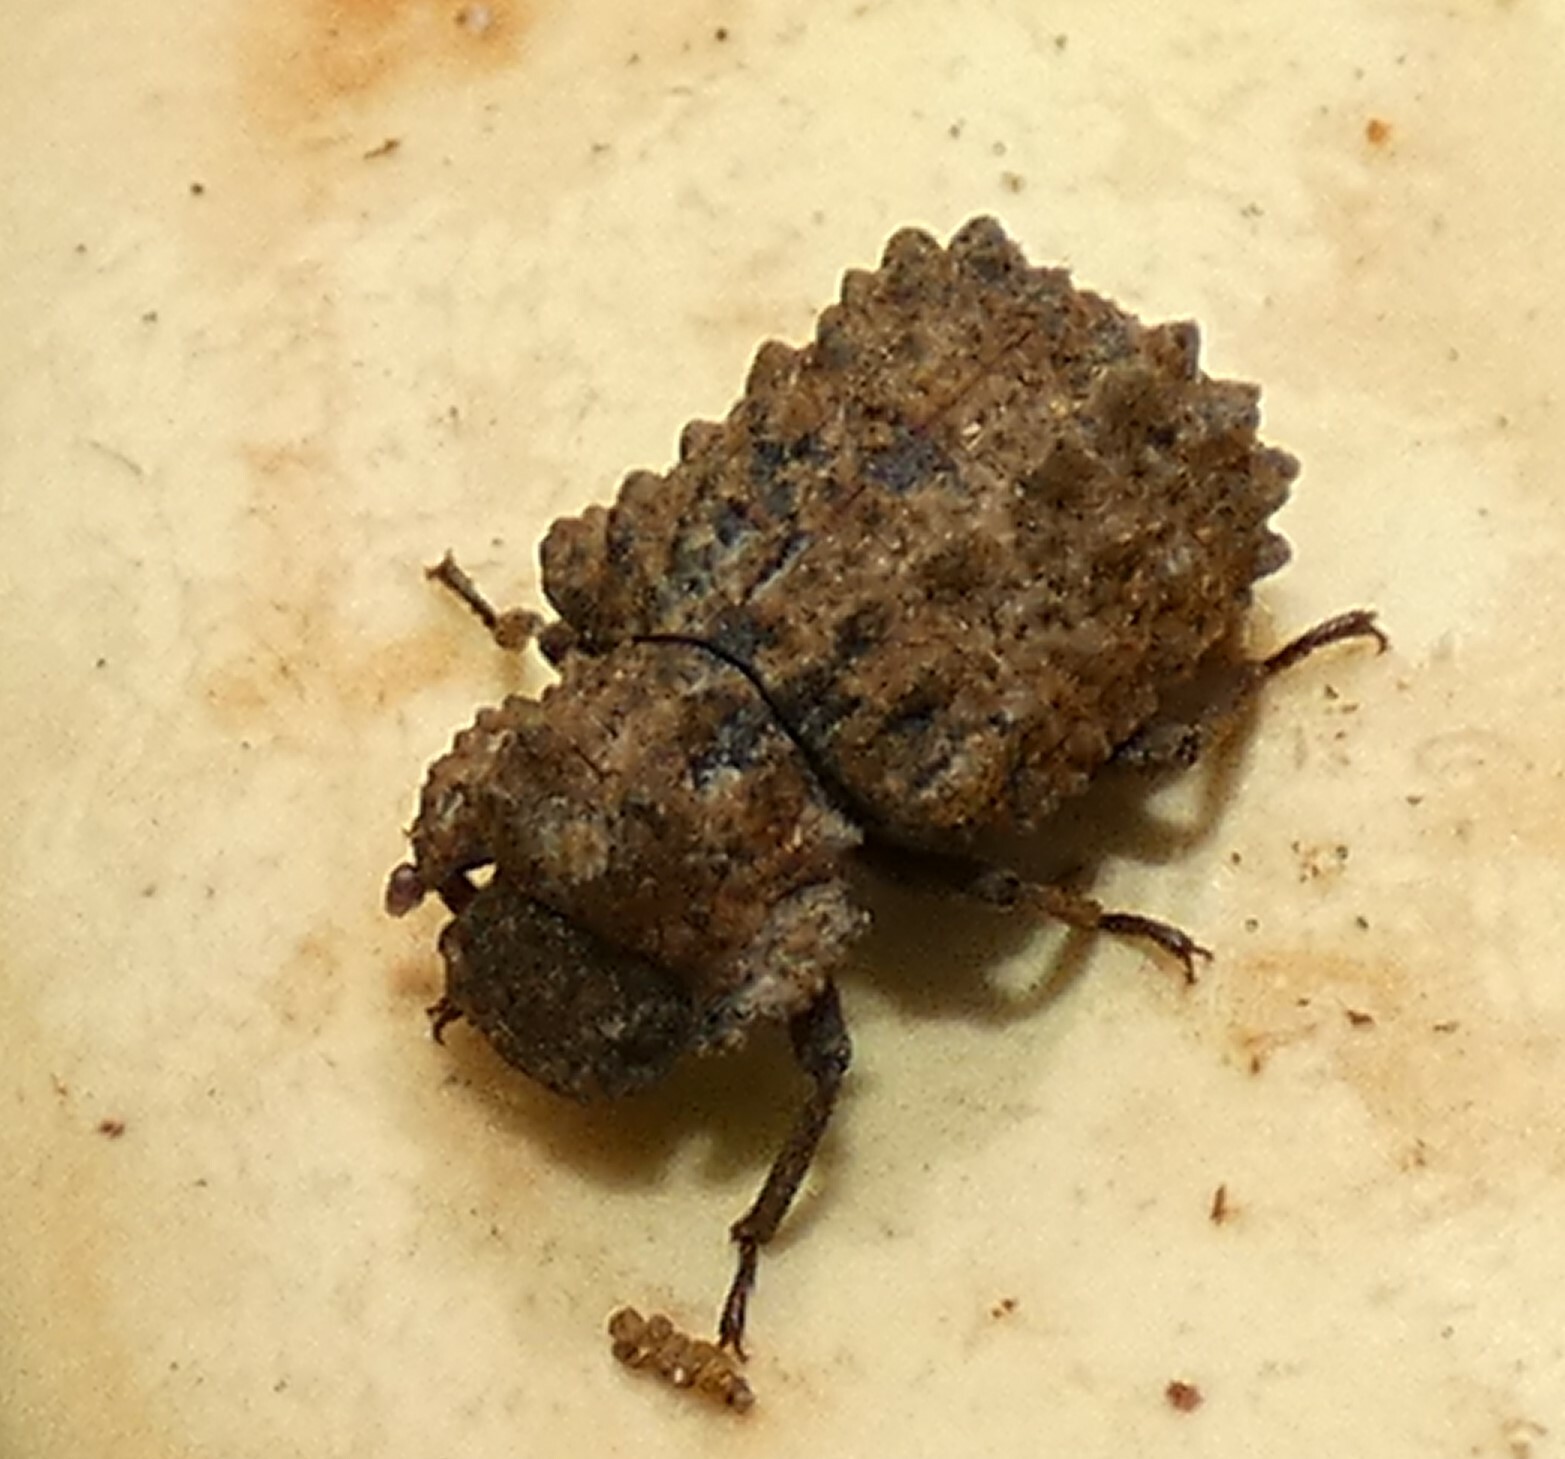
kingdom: Animalia
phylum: Arthropoda
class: Insecta
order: Coleoptera
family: Tenebrionidae
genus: Gnatocerus
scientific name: Gnatocerus cornutus
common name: Broad-horned flour beetle
